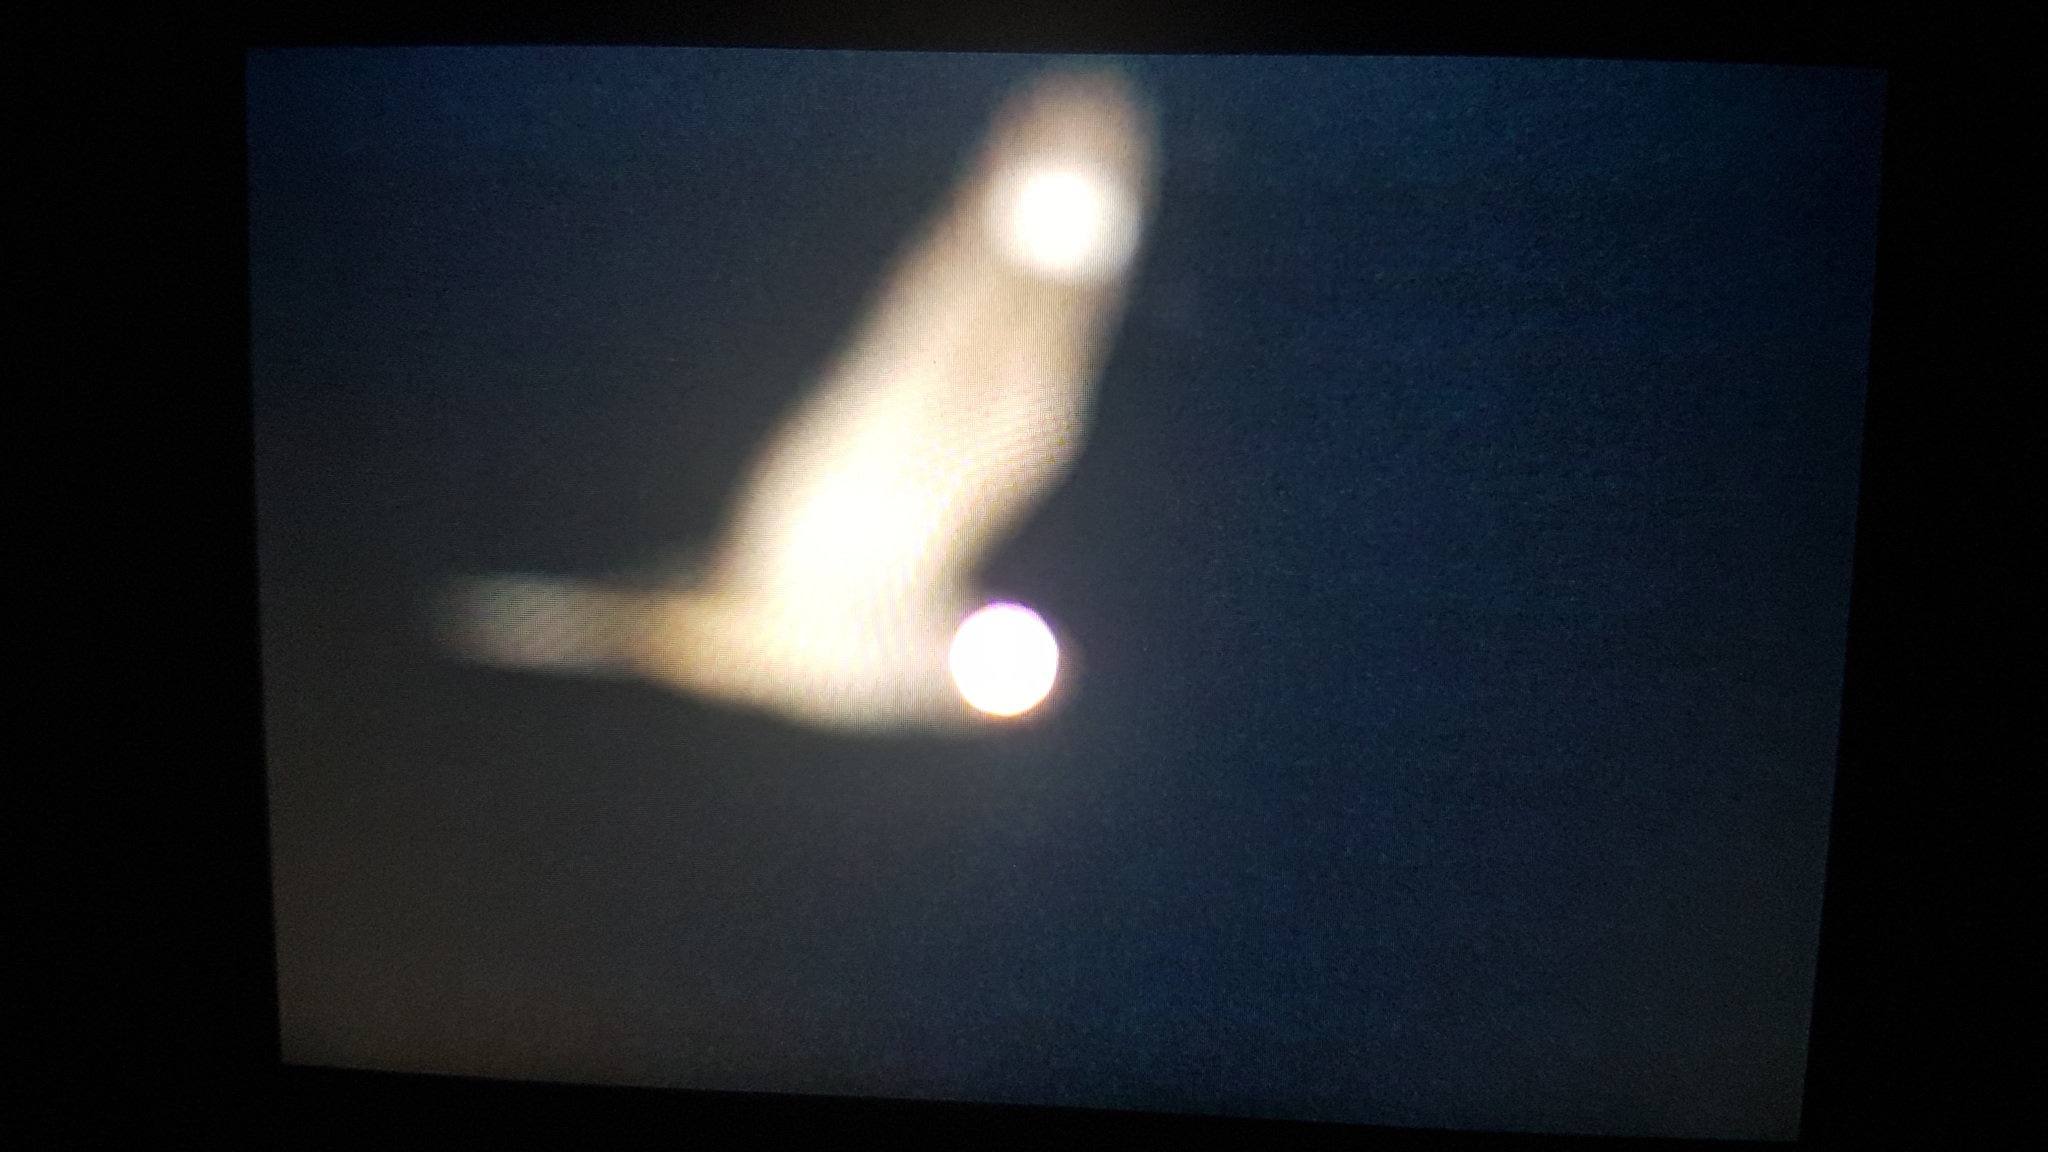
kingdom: Animalia
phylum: Chordata
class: Aves
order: Caprimulgiformes
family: Caprimulgidae
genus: Caprimulgus
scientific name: Caprimulgus europaeus
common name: European nightjar
